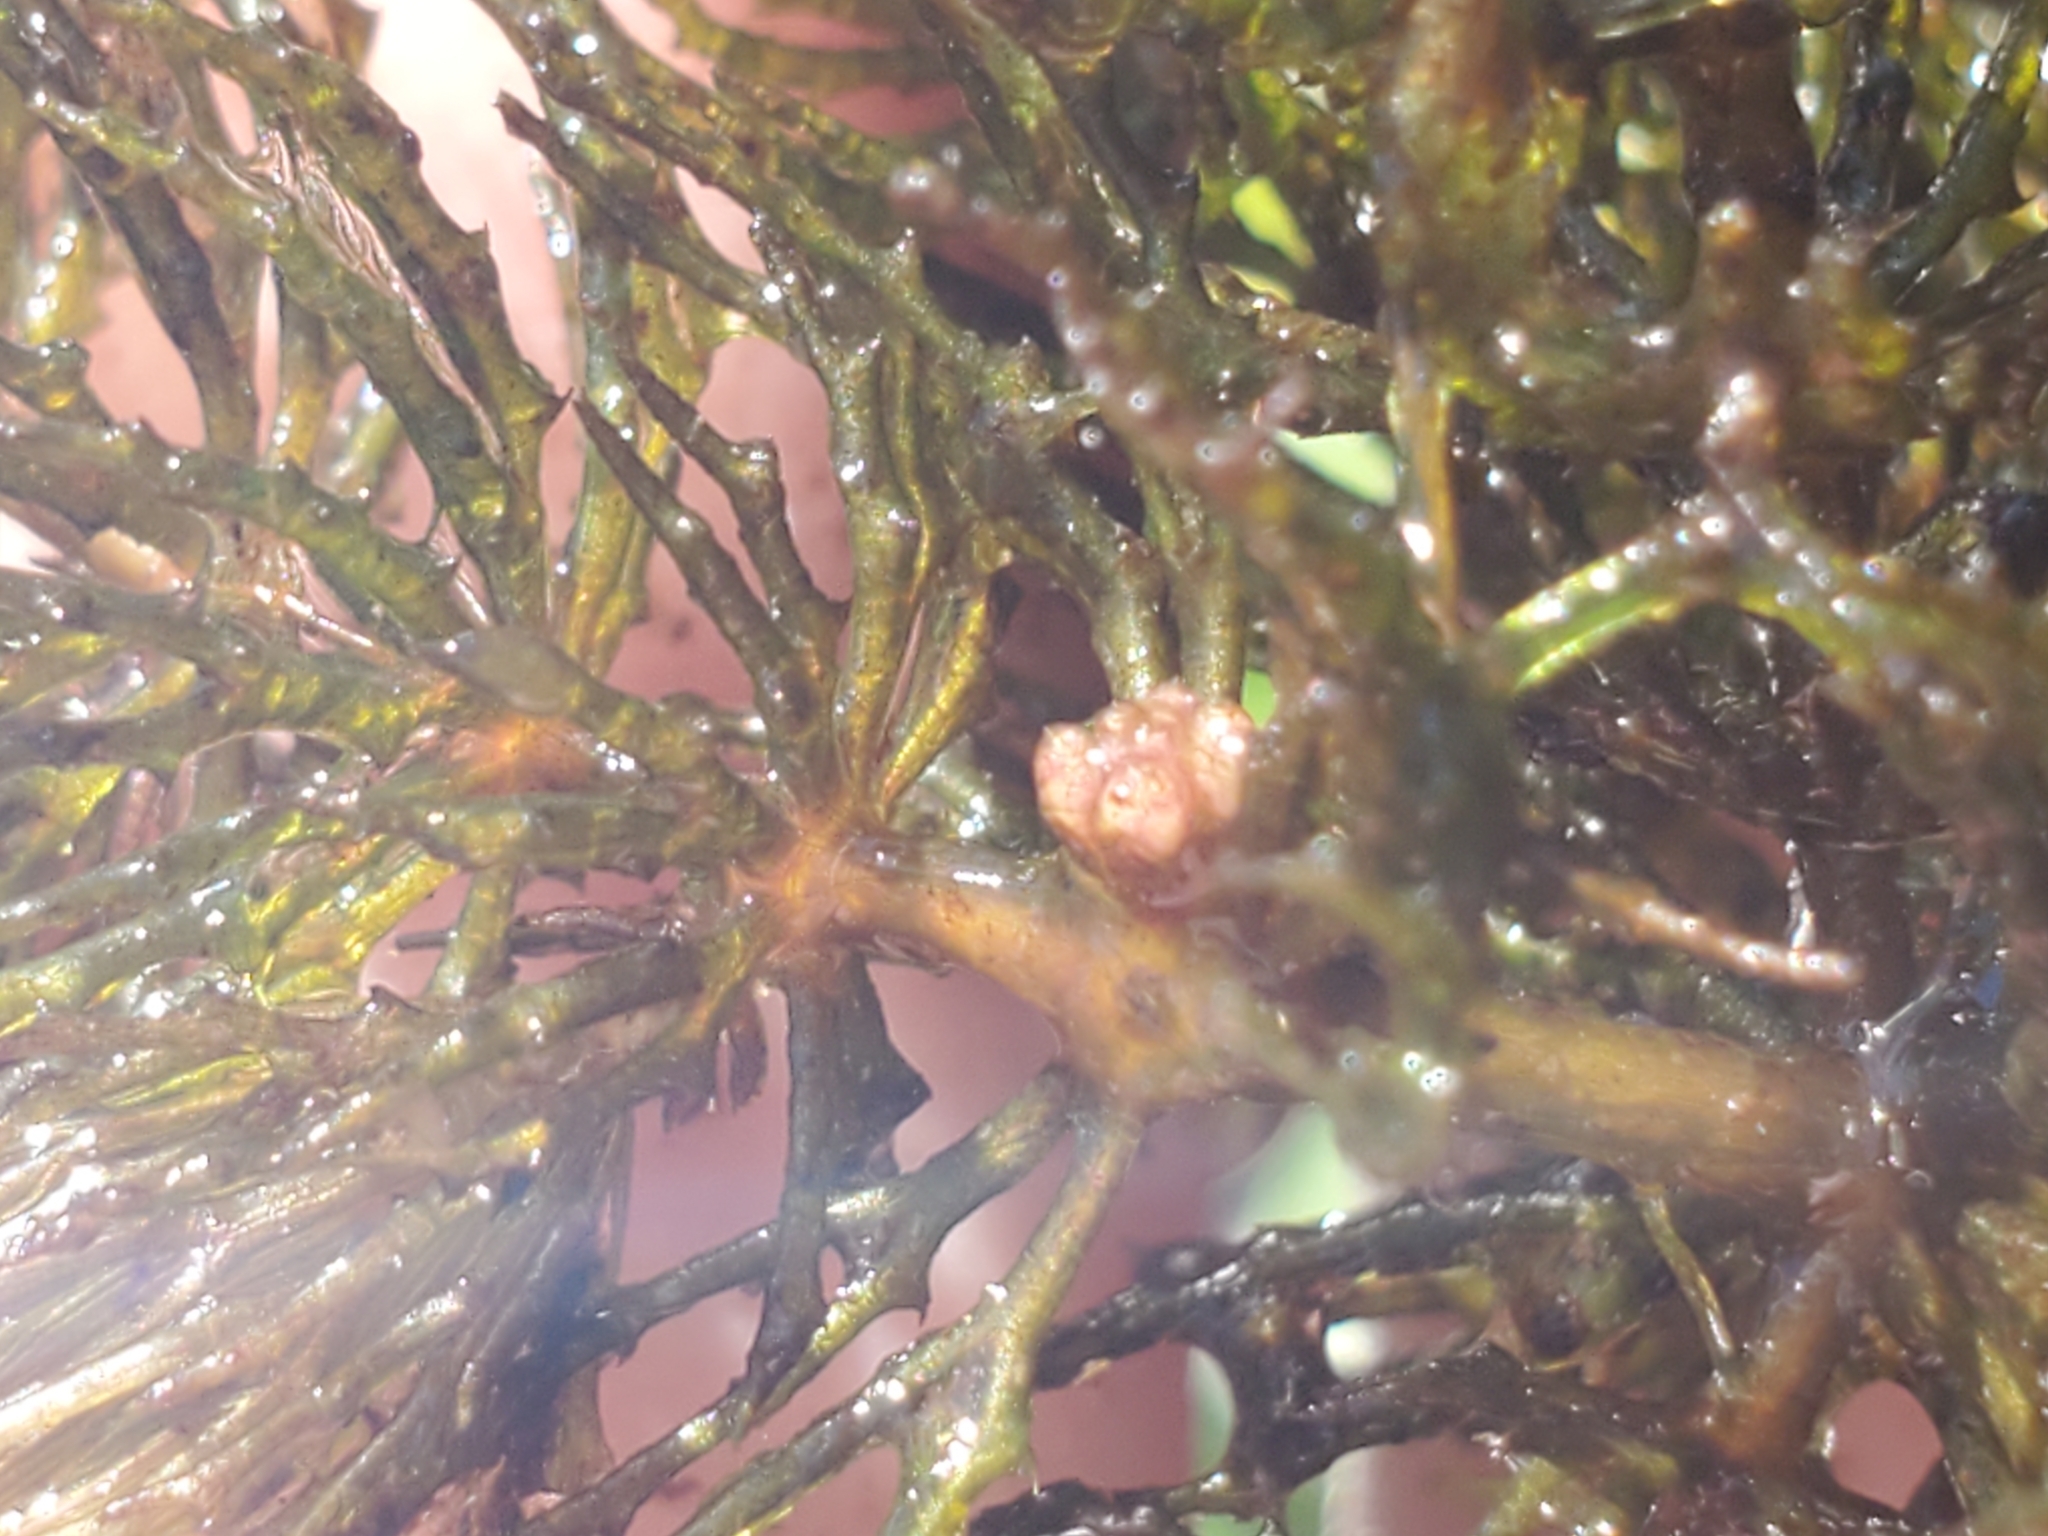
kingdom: Plantae
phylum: Tracheophyta
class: Magnoliopsida
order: Ceratophyllales
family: Ceratophyllaceae
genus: Ceratophyllum
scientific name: Ceratophyllum demersum
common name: Rigid hornwort
